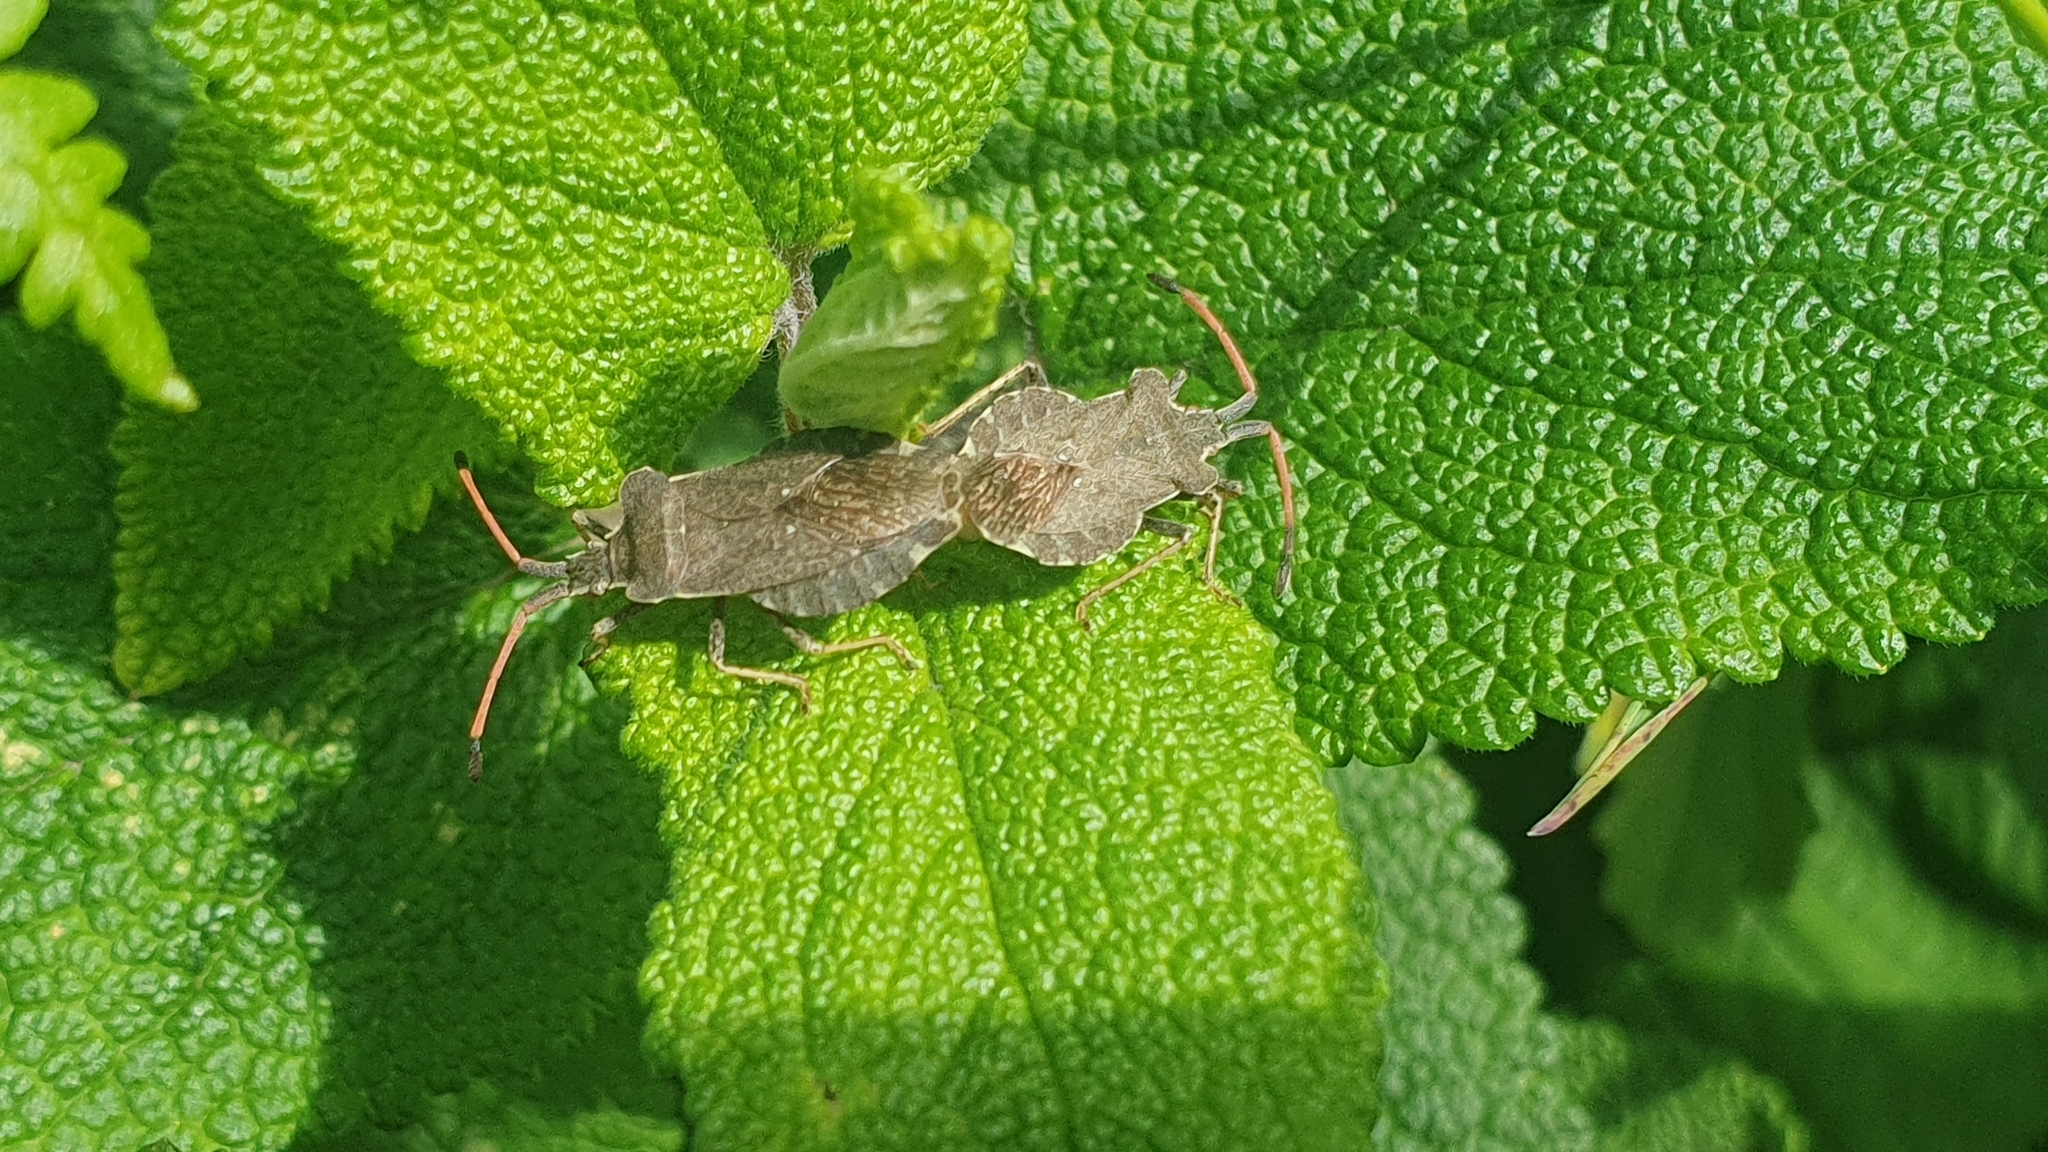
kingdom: Animalia
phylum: Arthropoda
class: Insecta
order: Hemiptera
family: Coreidae
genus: Enoplops
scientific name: Enoplops scapha
